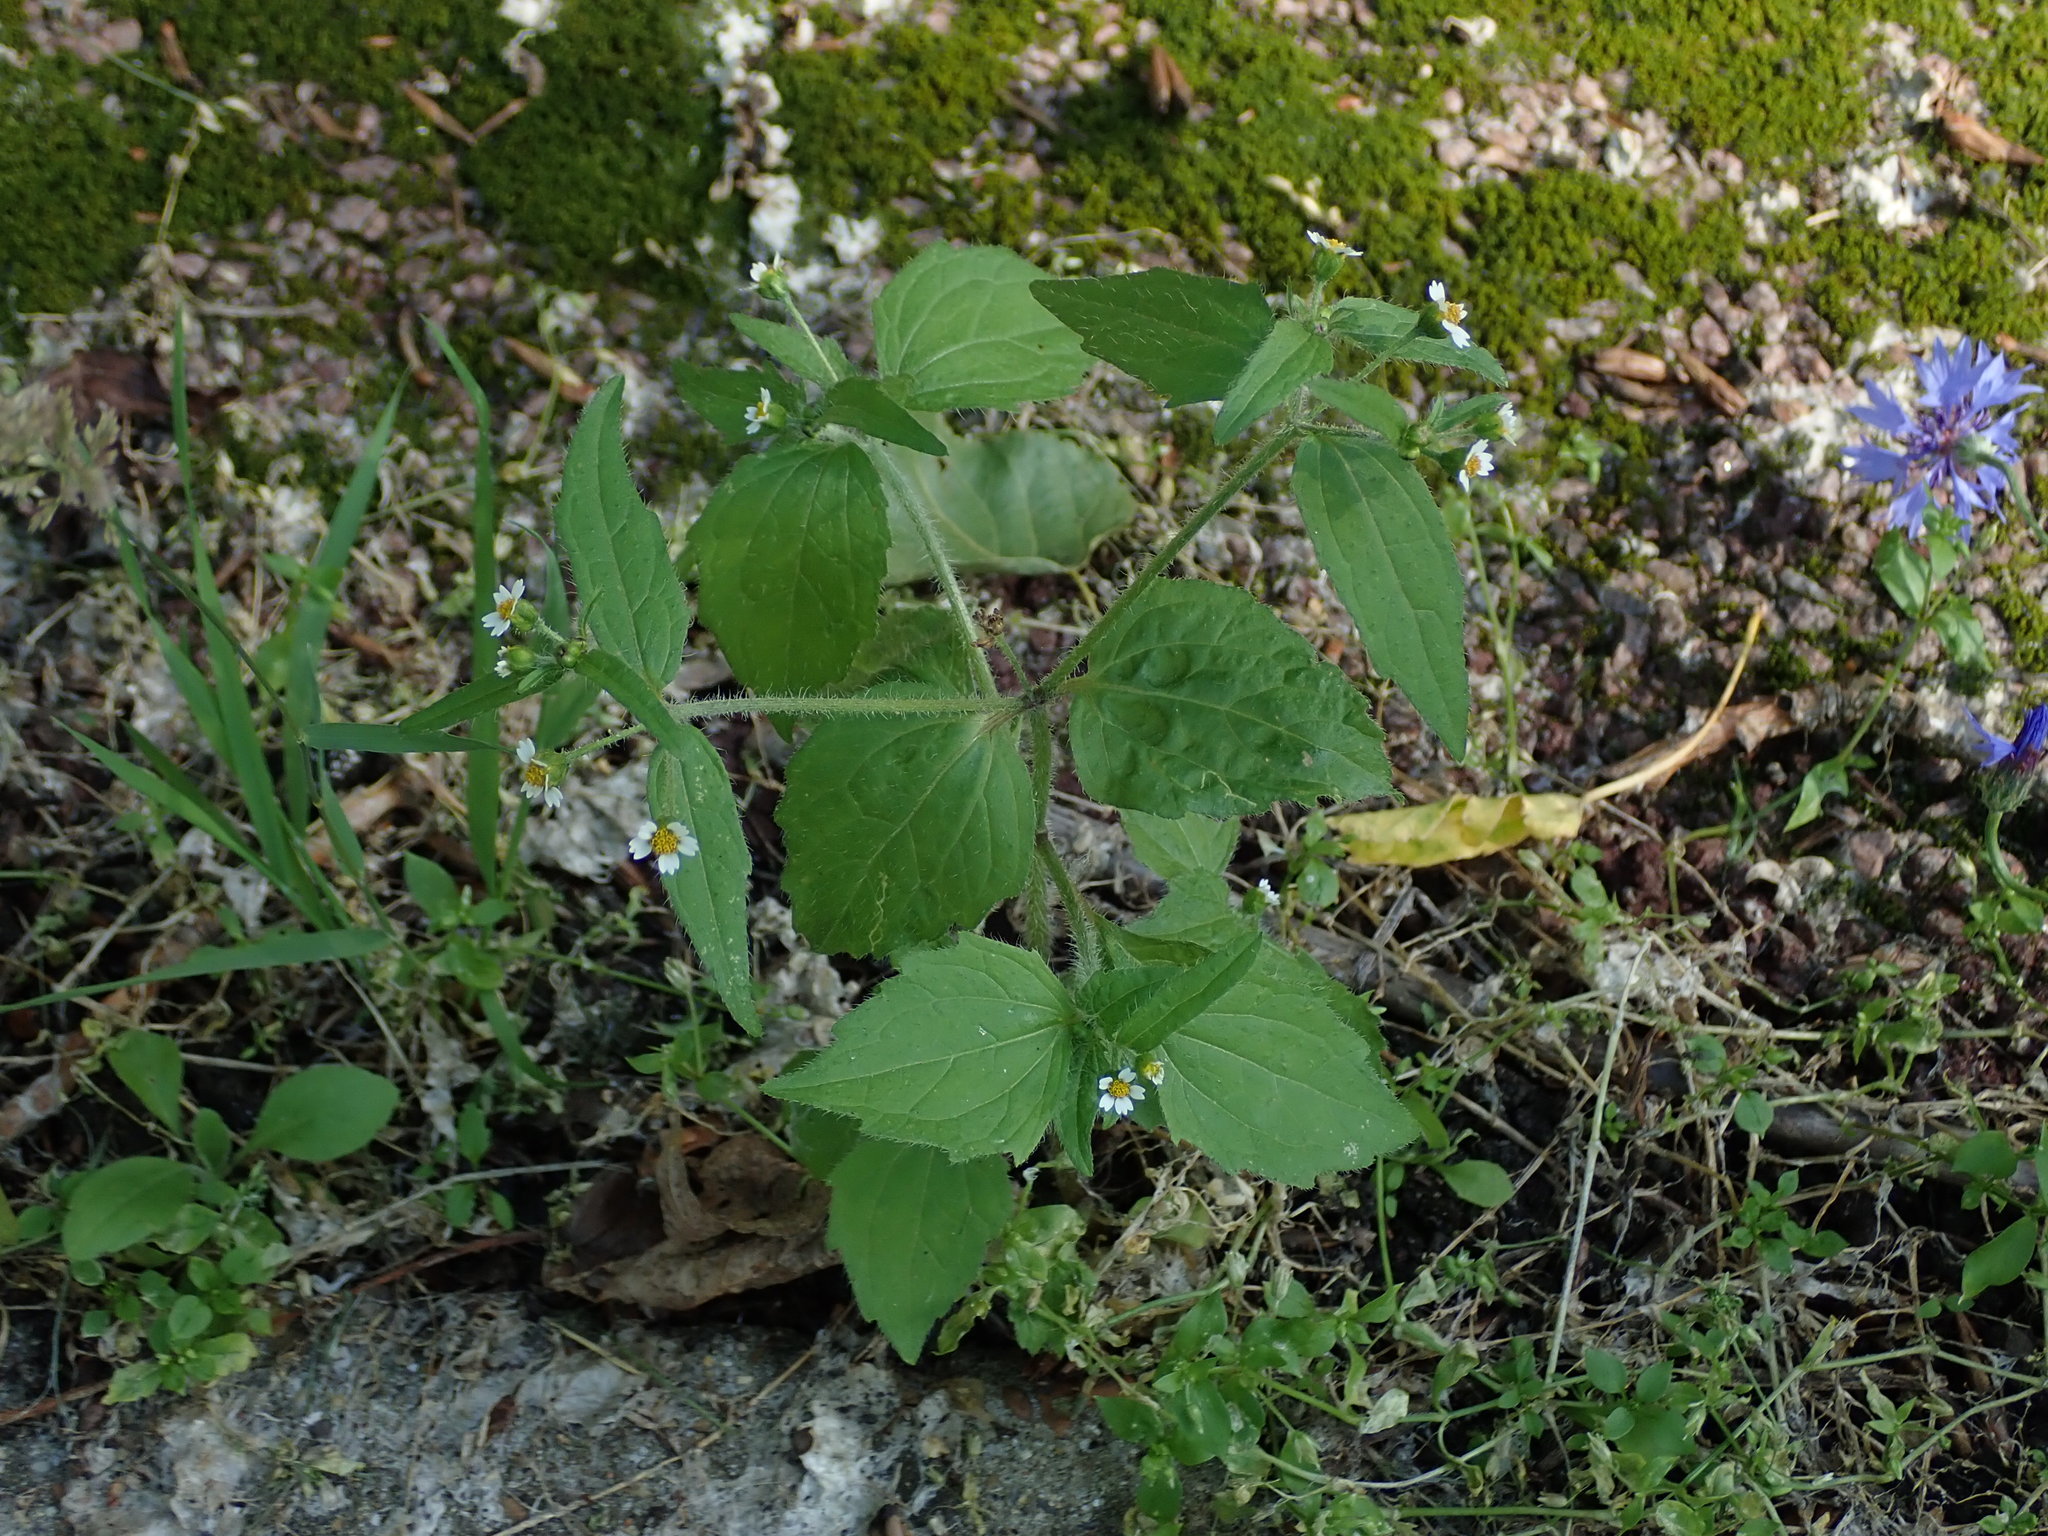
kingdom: Plantae
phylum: Tracheophyta
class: Magnoliopsida
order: Asterales
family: Asteraceae
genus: Galinsoga
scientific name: Galinsoga quadriradiata
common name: Shaggy soldier
